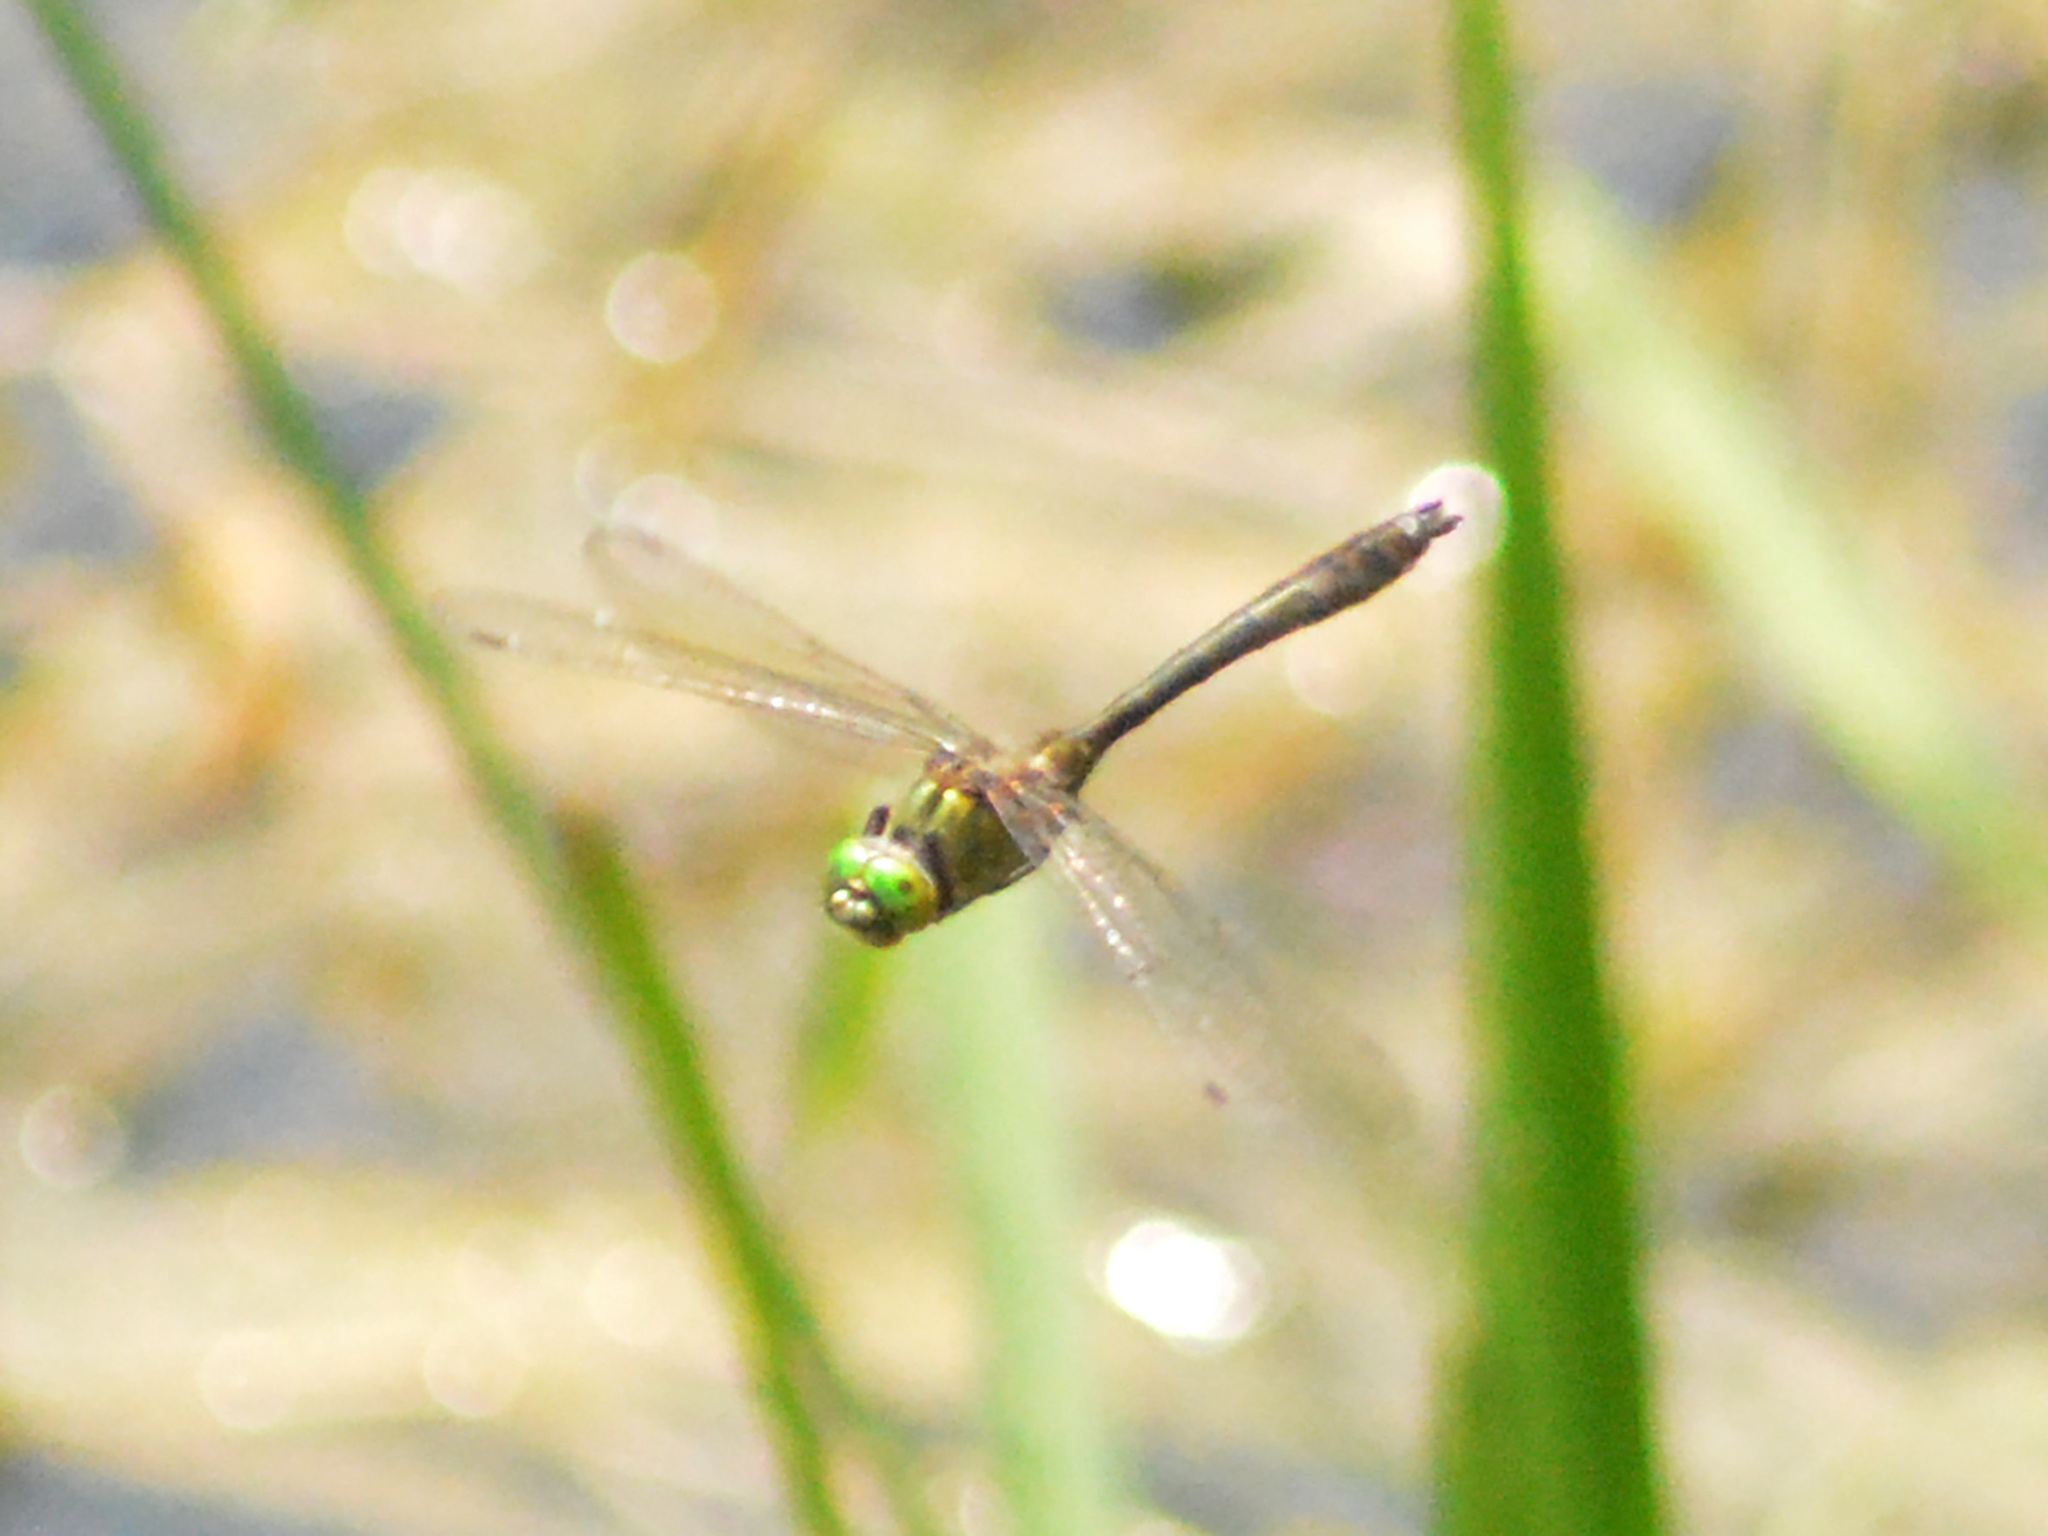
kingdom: Animalia
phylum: Arthropoda
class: Insecta
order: Odonata
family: Corduliidae
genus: Cordulia
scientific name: Cordulia aenea
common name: Downy emerald
